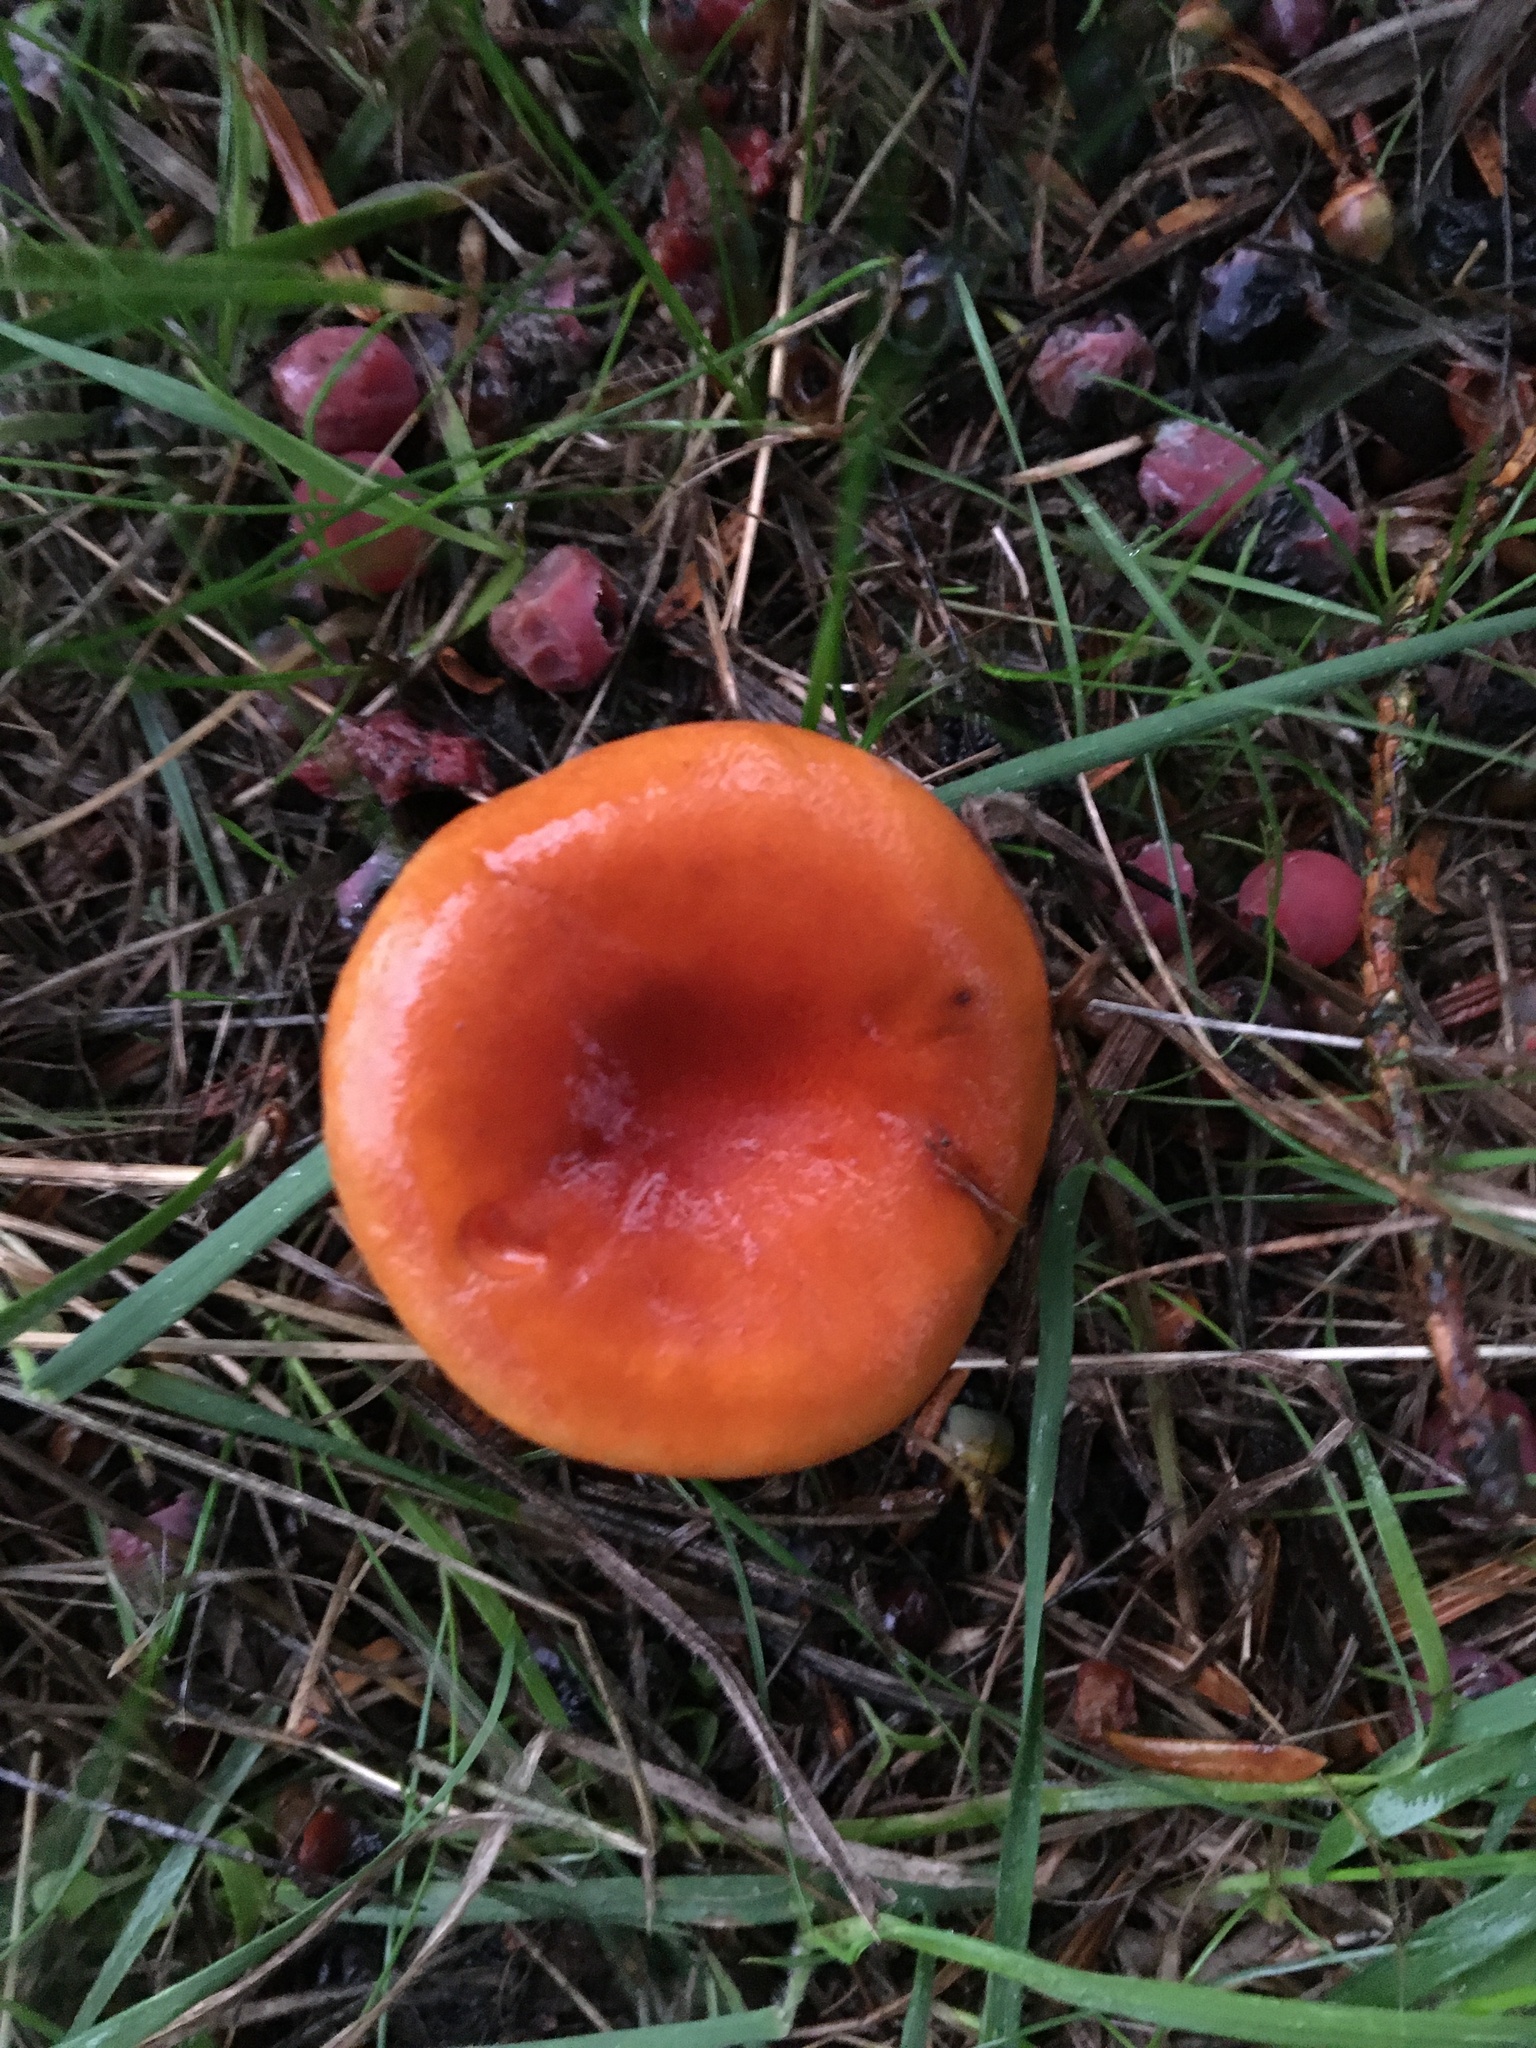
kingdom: Fungi
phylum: Basidiomycota
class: Agaricomycetes
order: Boletales
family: Hygrophoropsidaceae
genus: Hygrophoropsis
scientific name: Hygrophoropsis aurantiaca
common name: False chanterelle
